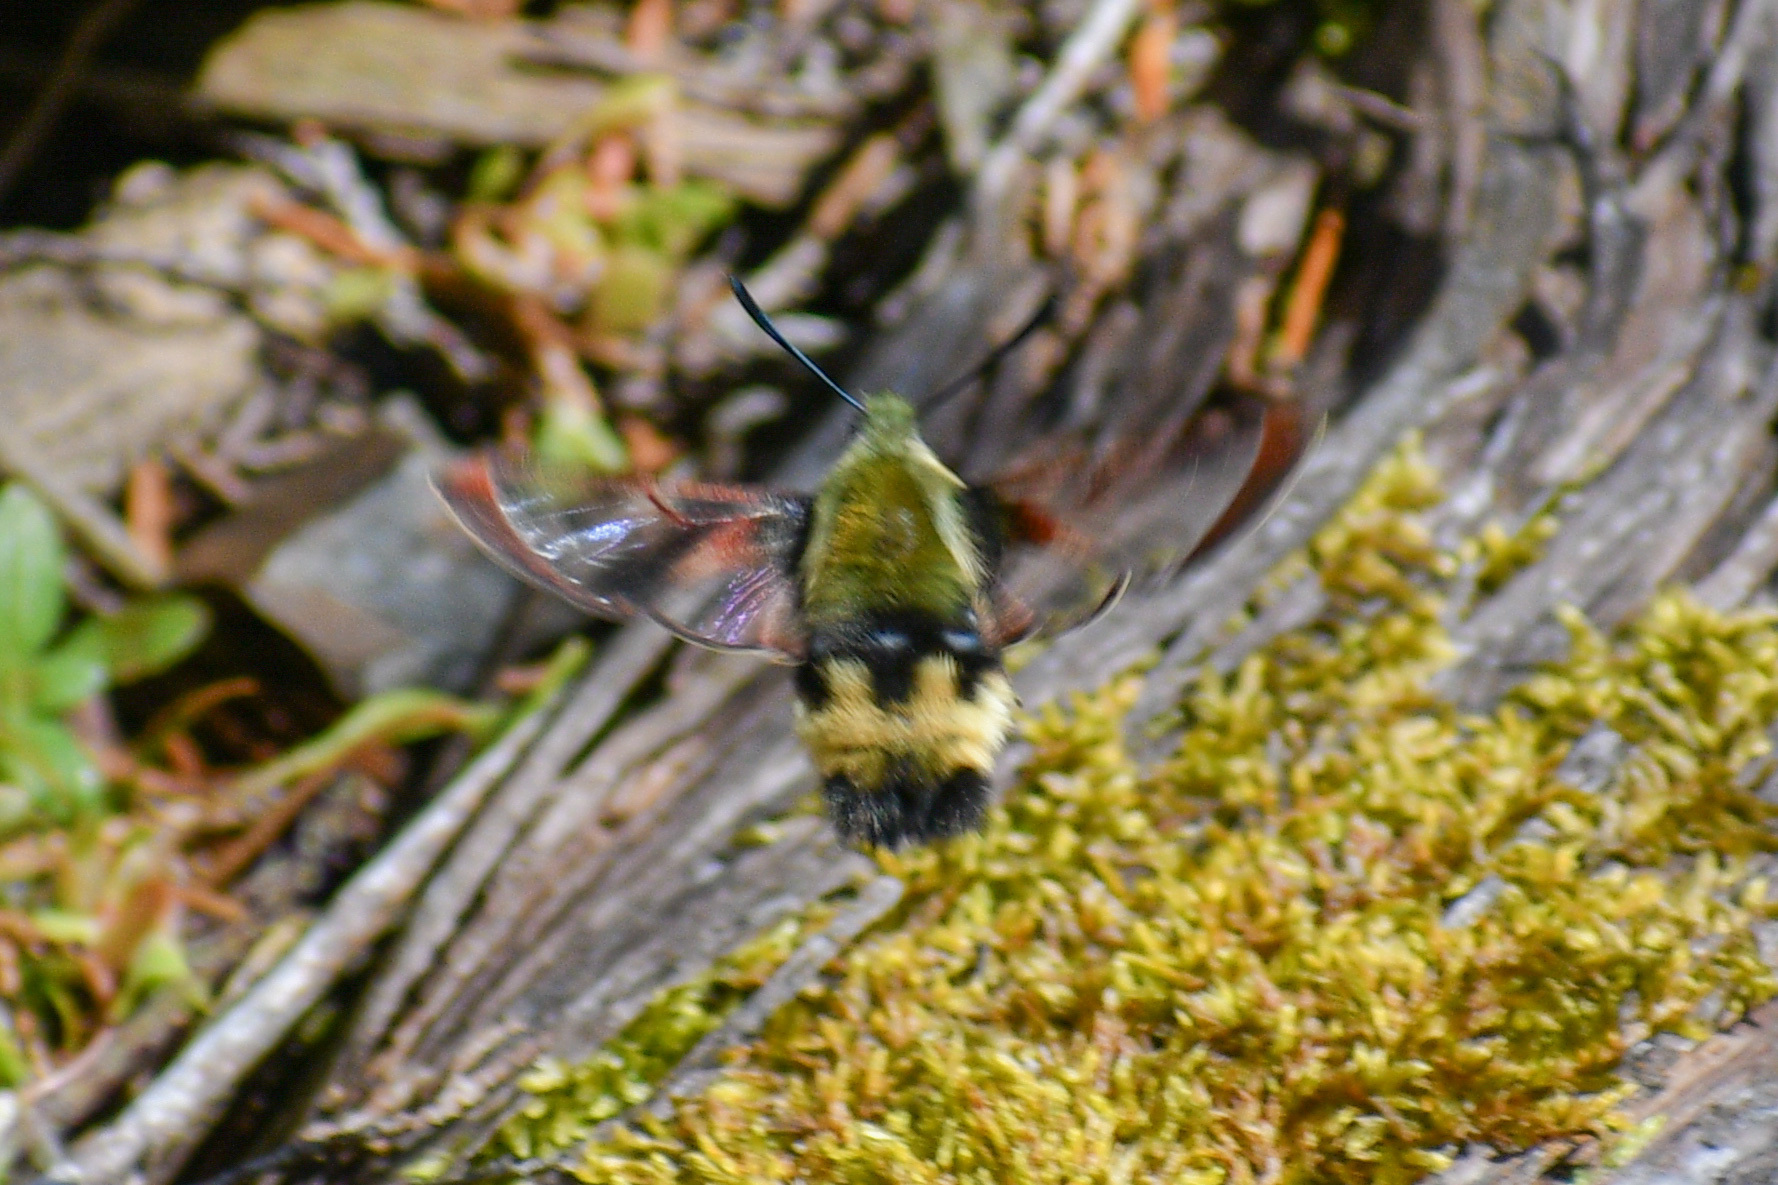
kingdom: Animalia
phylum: Arthropoda
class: Insecta
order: Lepidoptera
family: Sphingidae
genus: Hemaris
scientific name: Hemaris thetis
